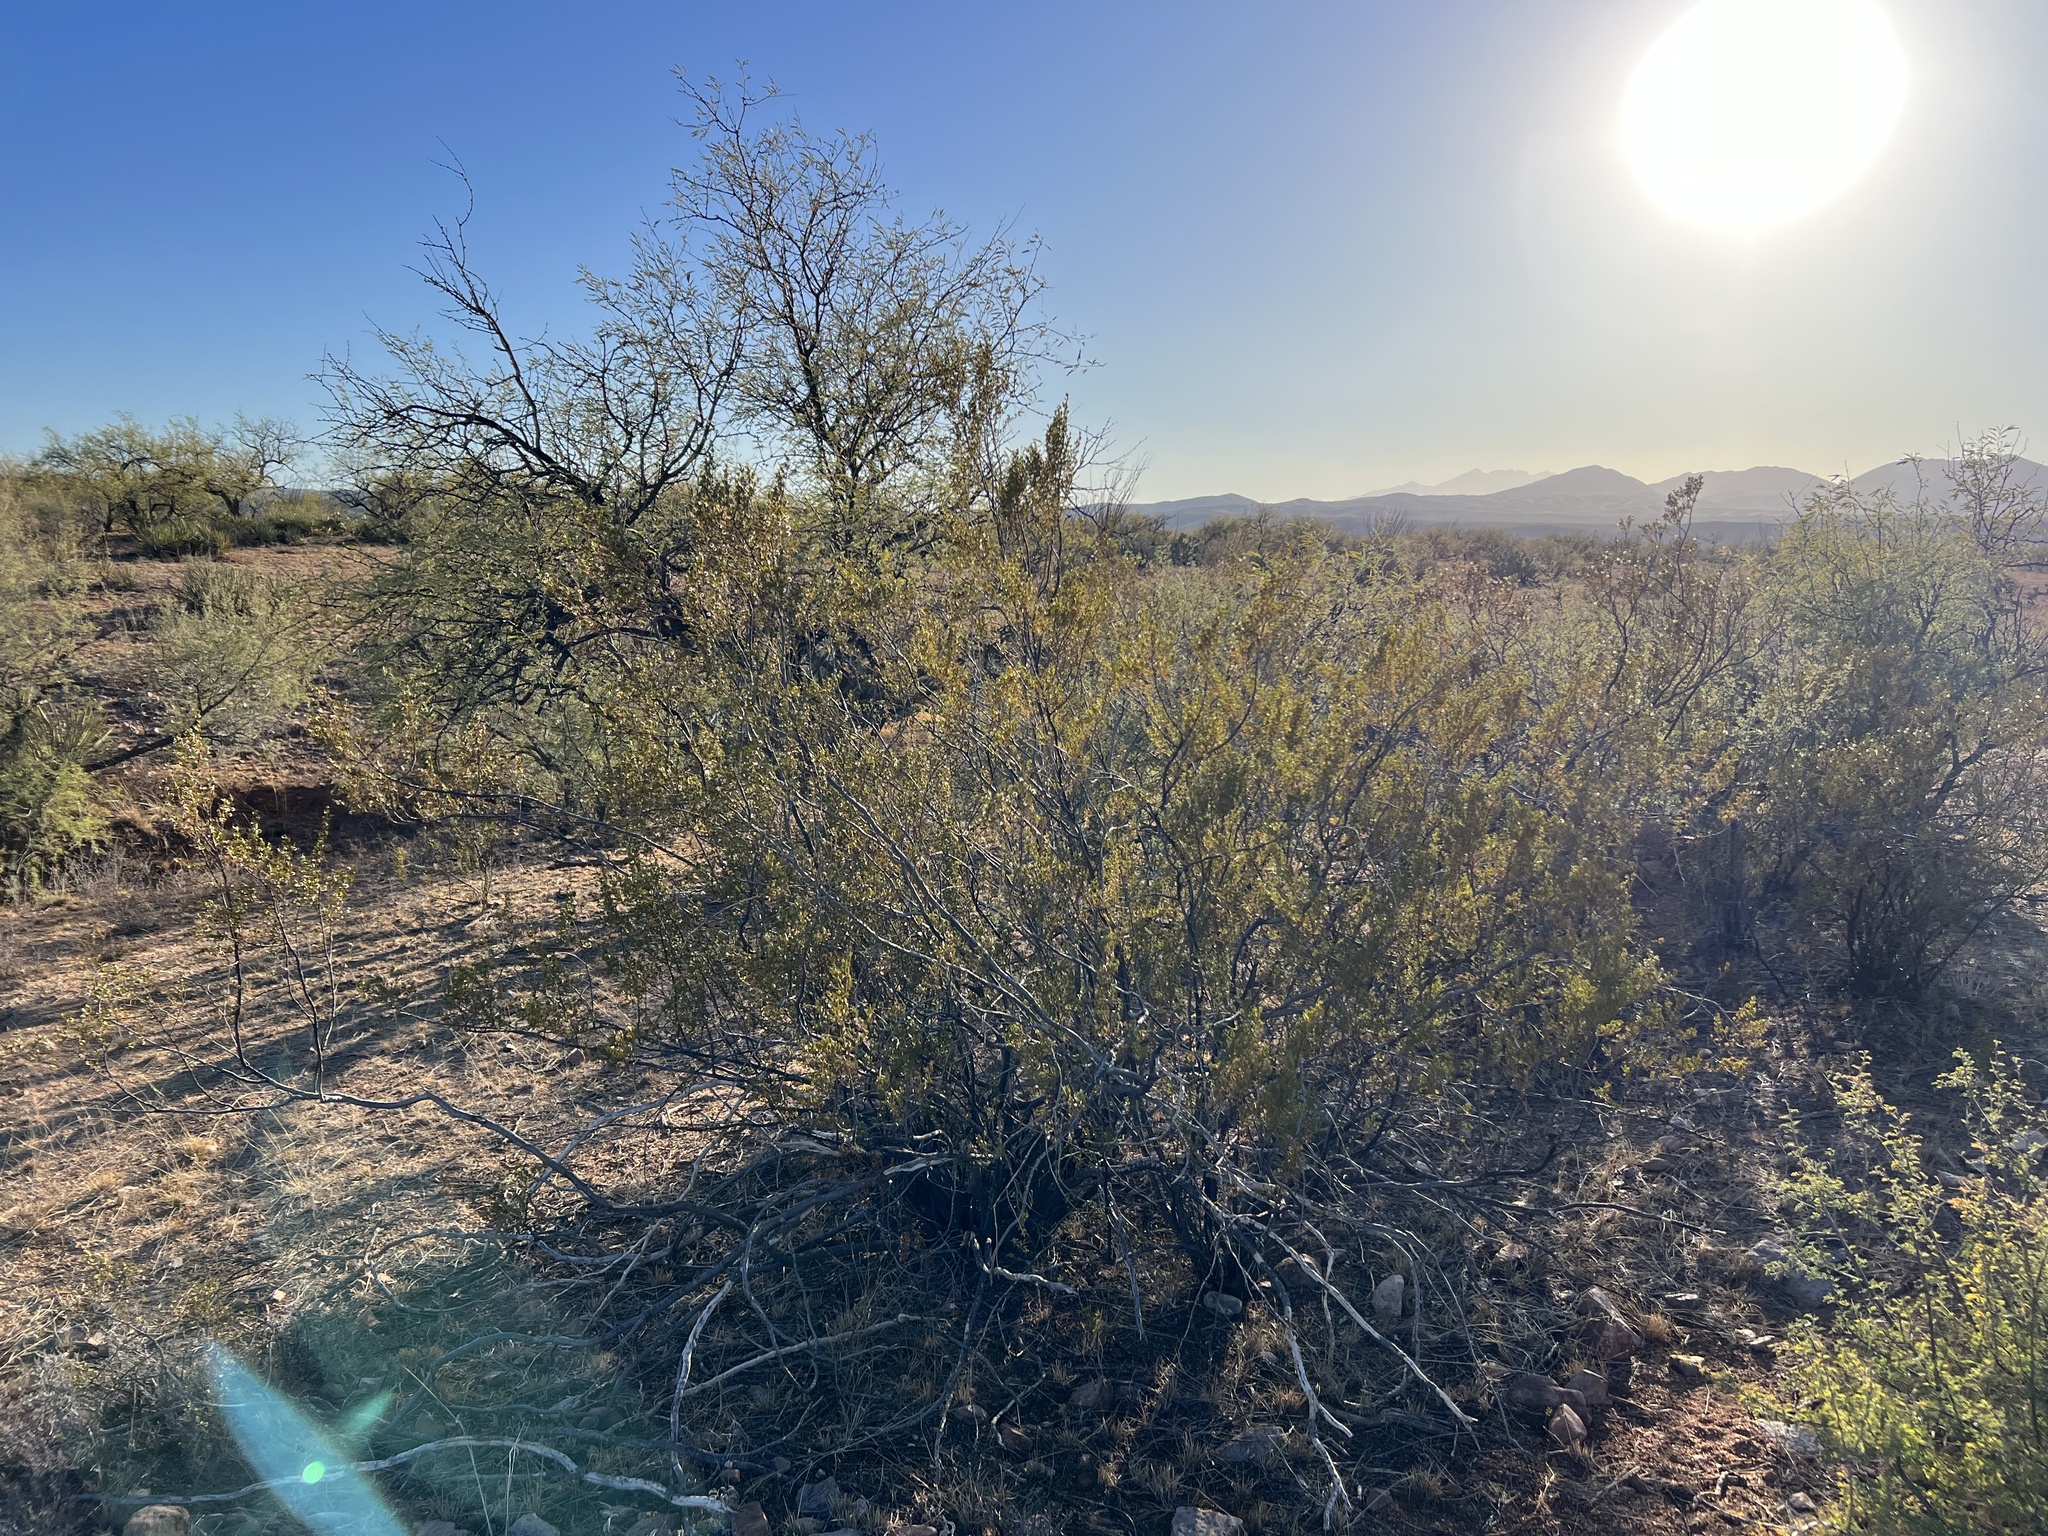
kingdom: Plantae
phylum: Tracheophyta
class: Magnoliopsida
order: Zygophyllales
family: Zygophyllaceae
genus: Larrea
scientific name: Larrea tridentata
